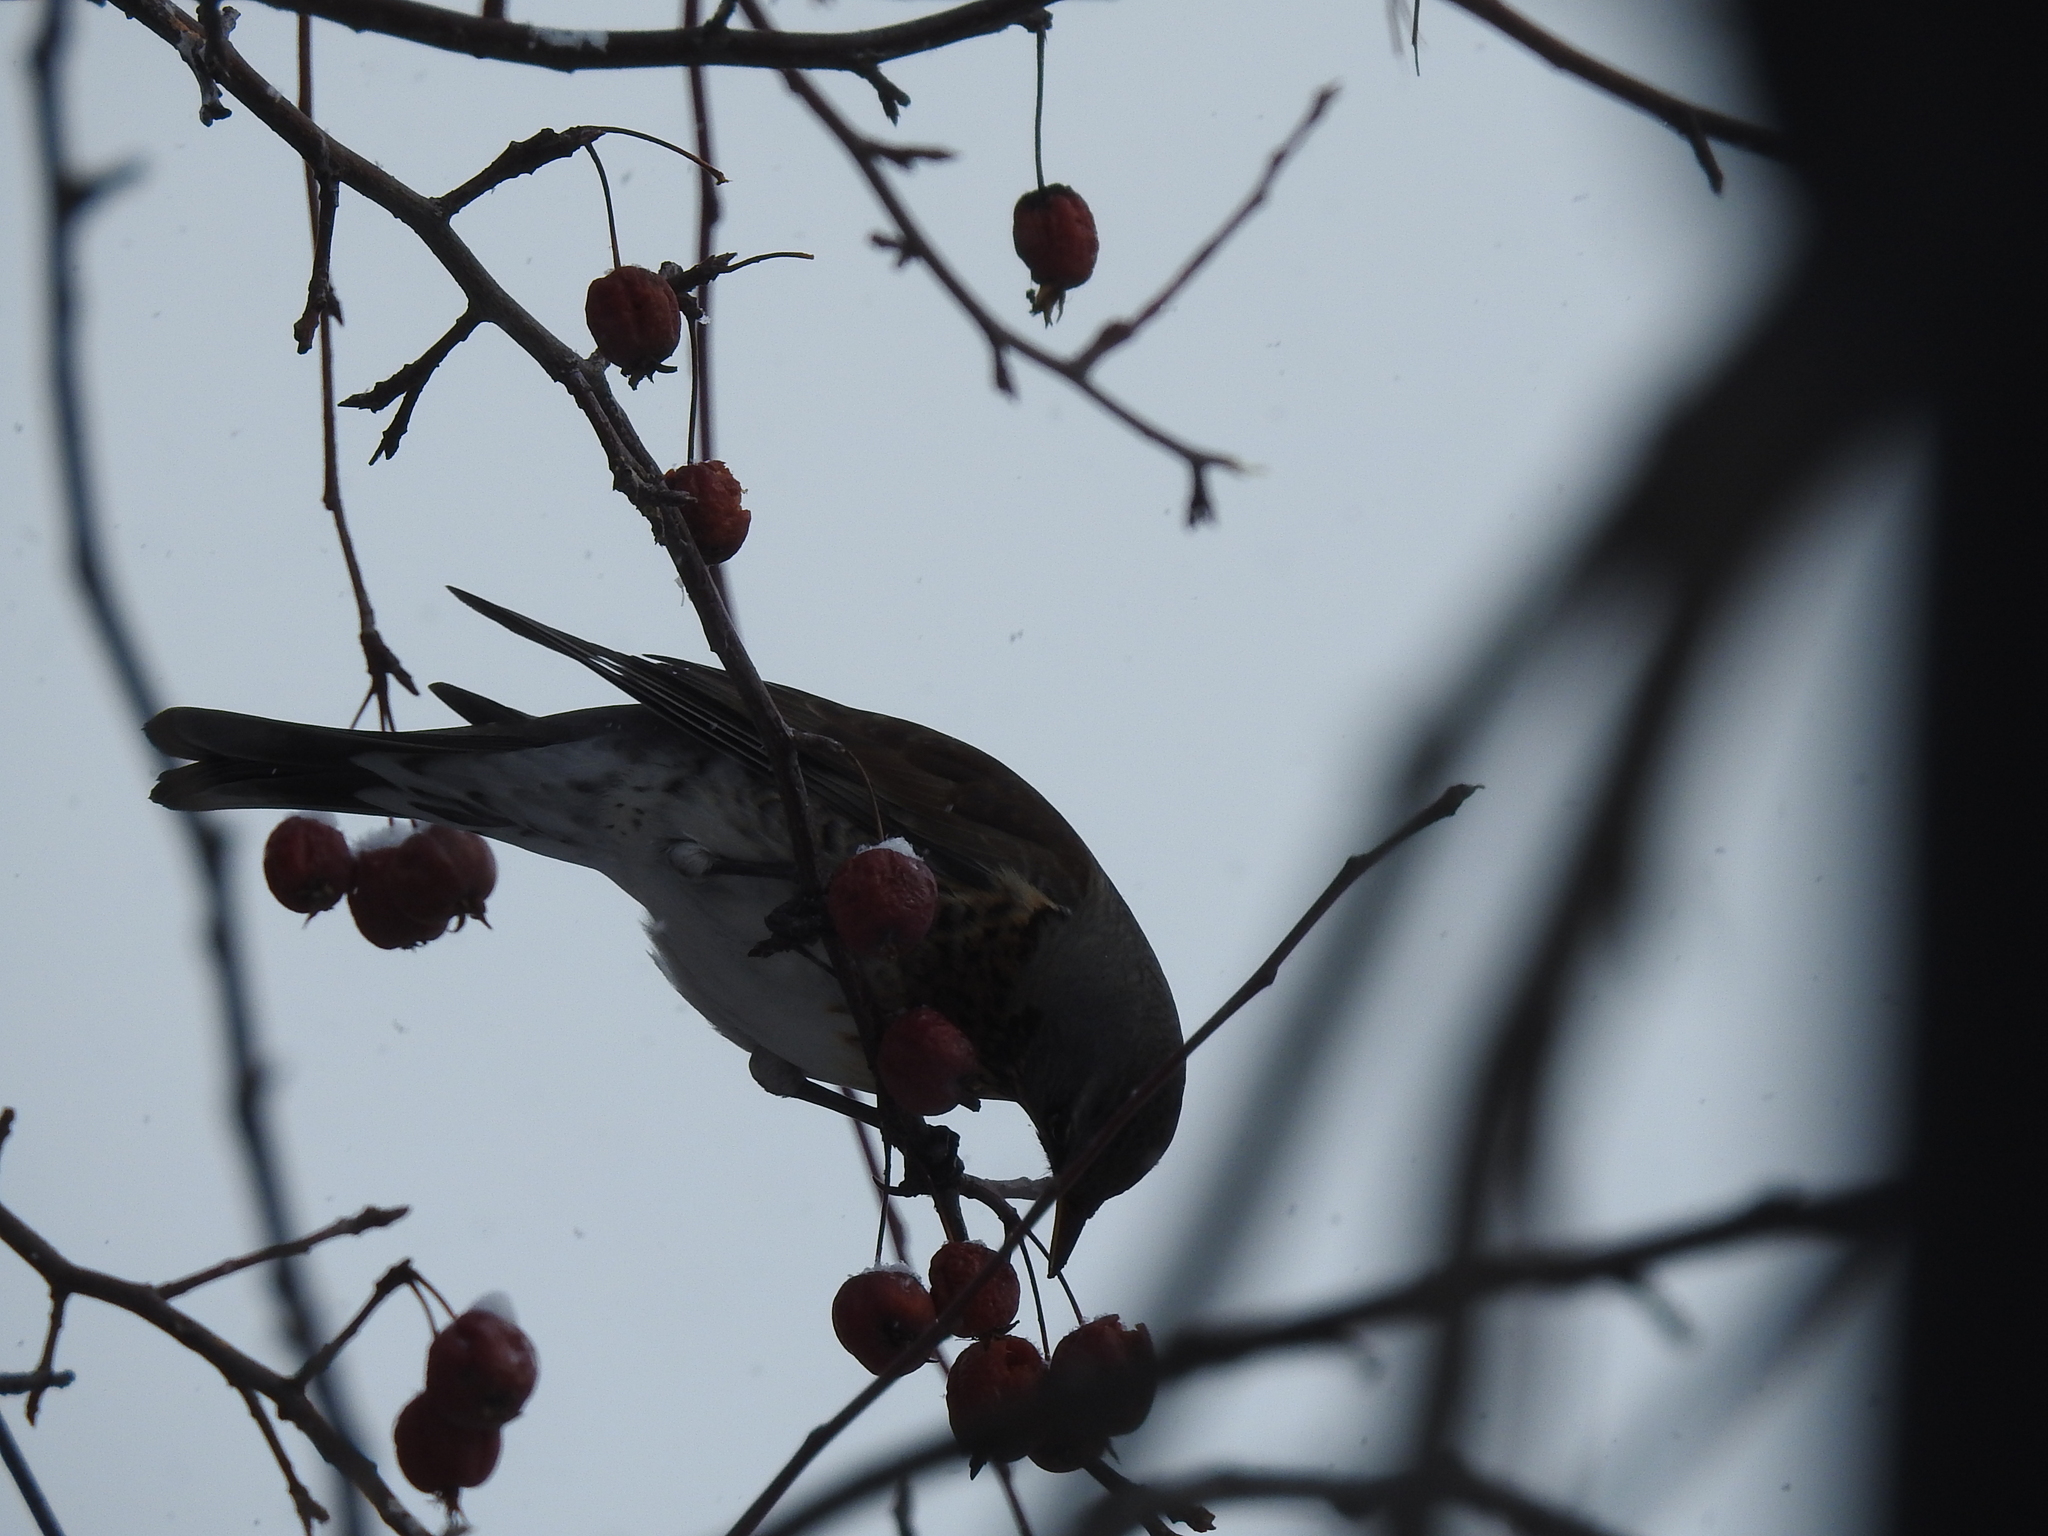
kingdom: Animalia
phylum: Chordata
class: Aves
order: Passeriformes
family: Turdidae
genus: Turdus
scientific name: Turdus pilaris
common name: Fieldfare
